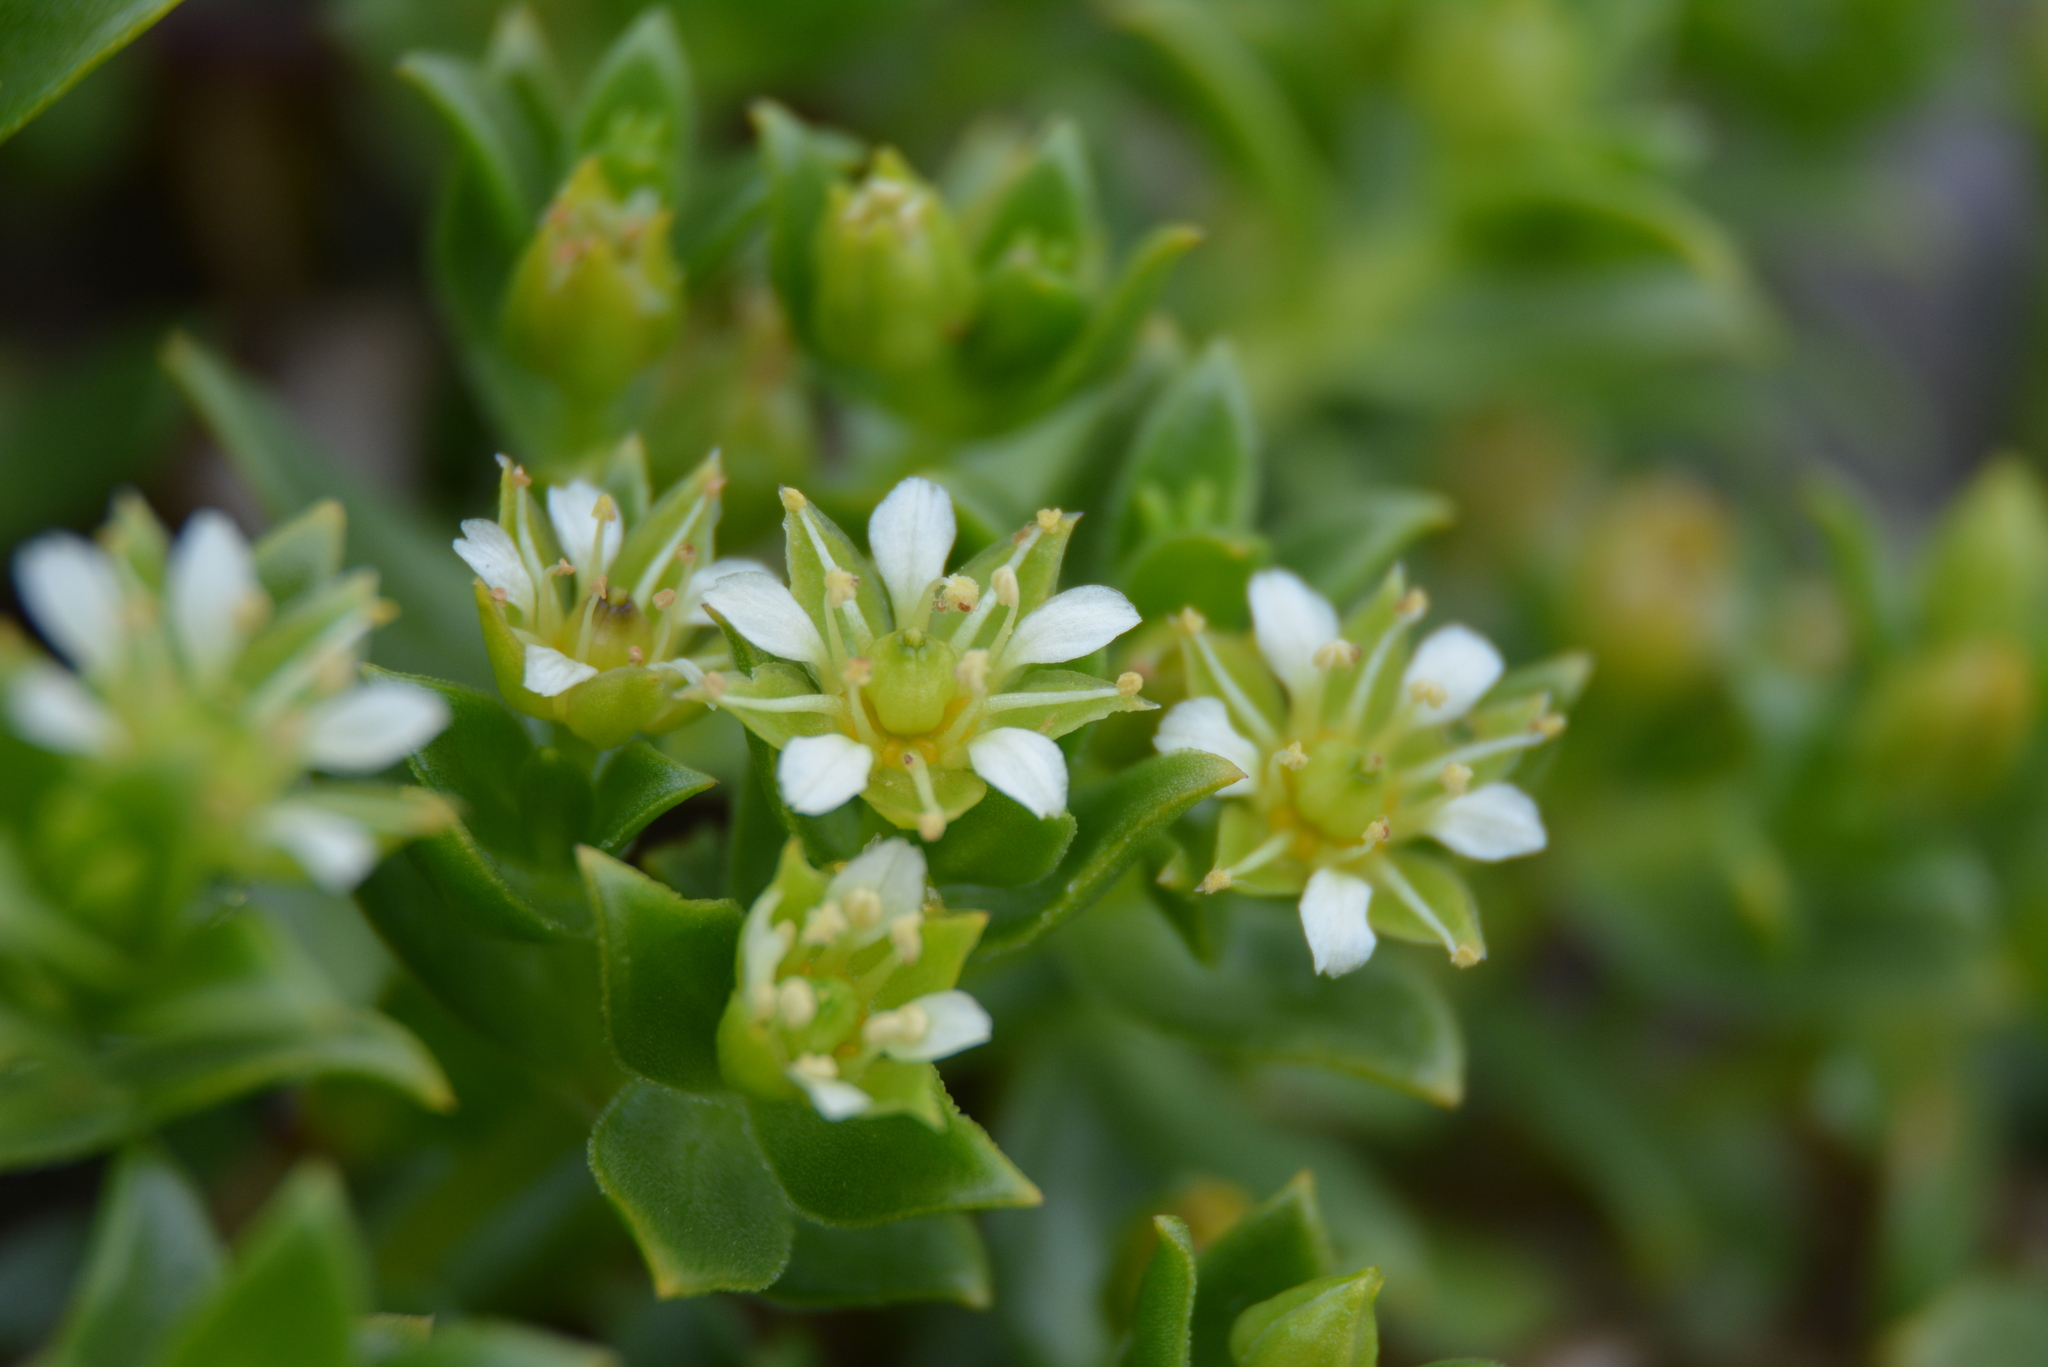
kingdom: Plantae
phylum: Tracheophyta
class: Magnoliopsida
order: Caryophyllales
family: Caryophyllaceae
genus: Honckenya
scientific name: Honckenya peploides
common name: Sea sandwort
